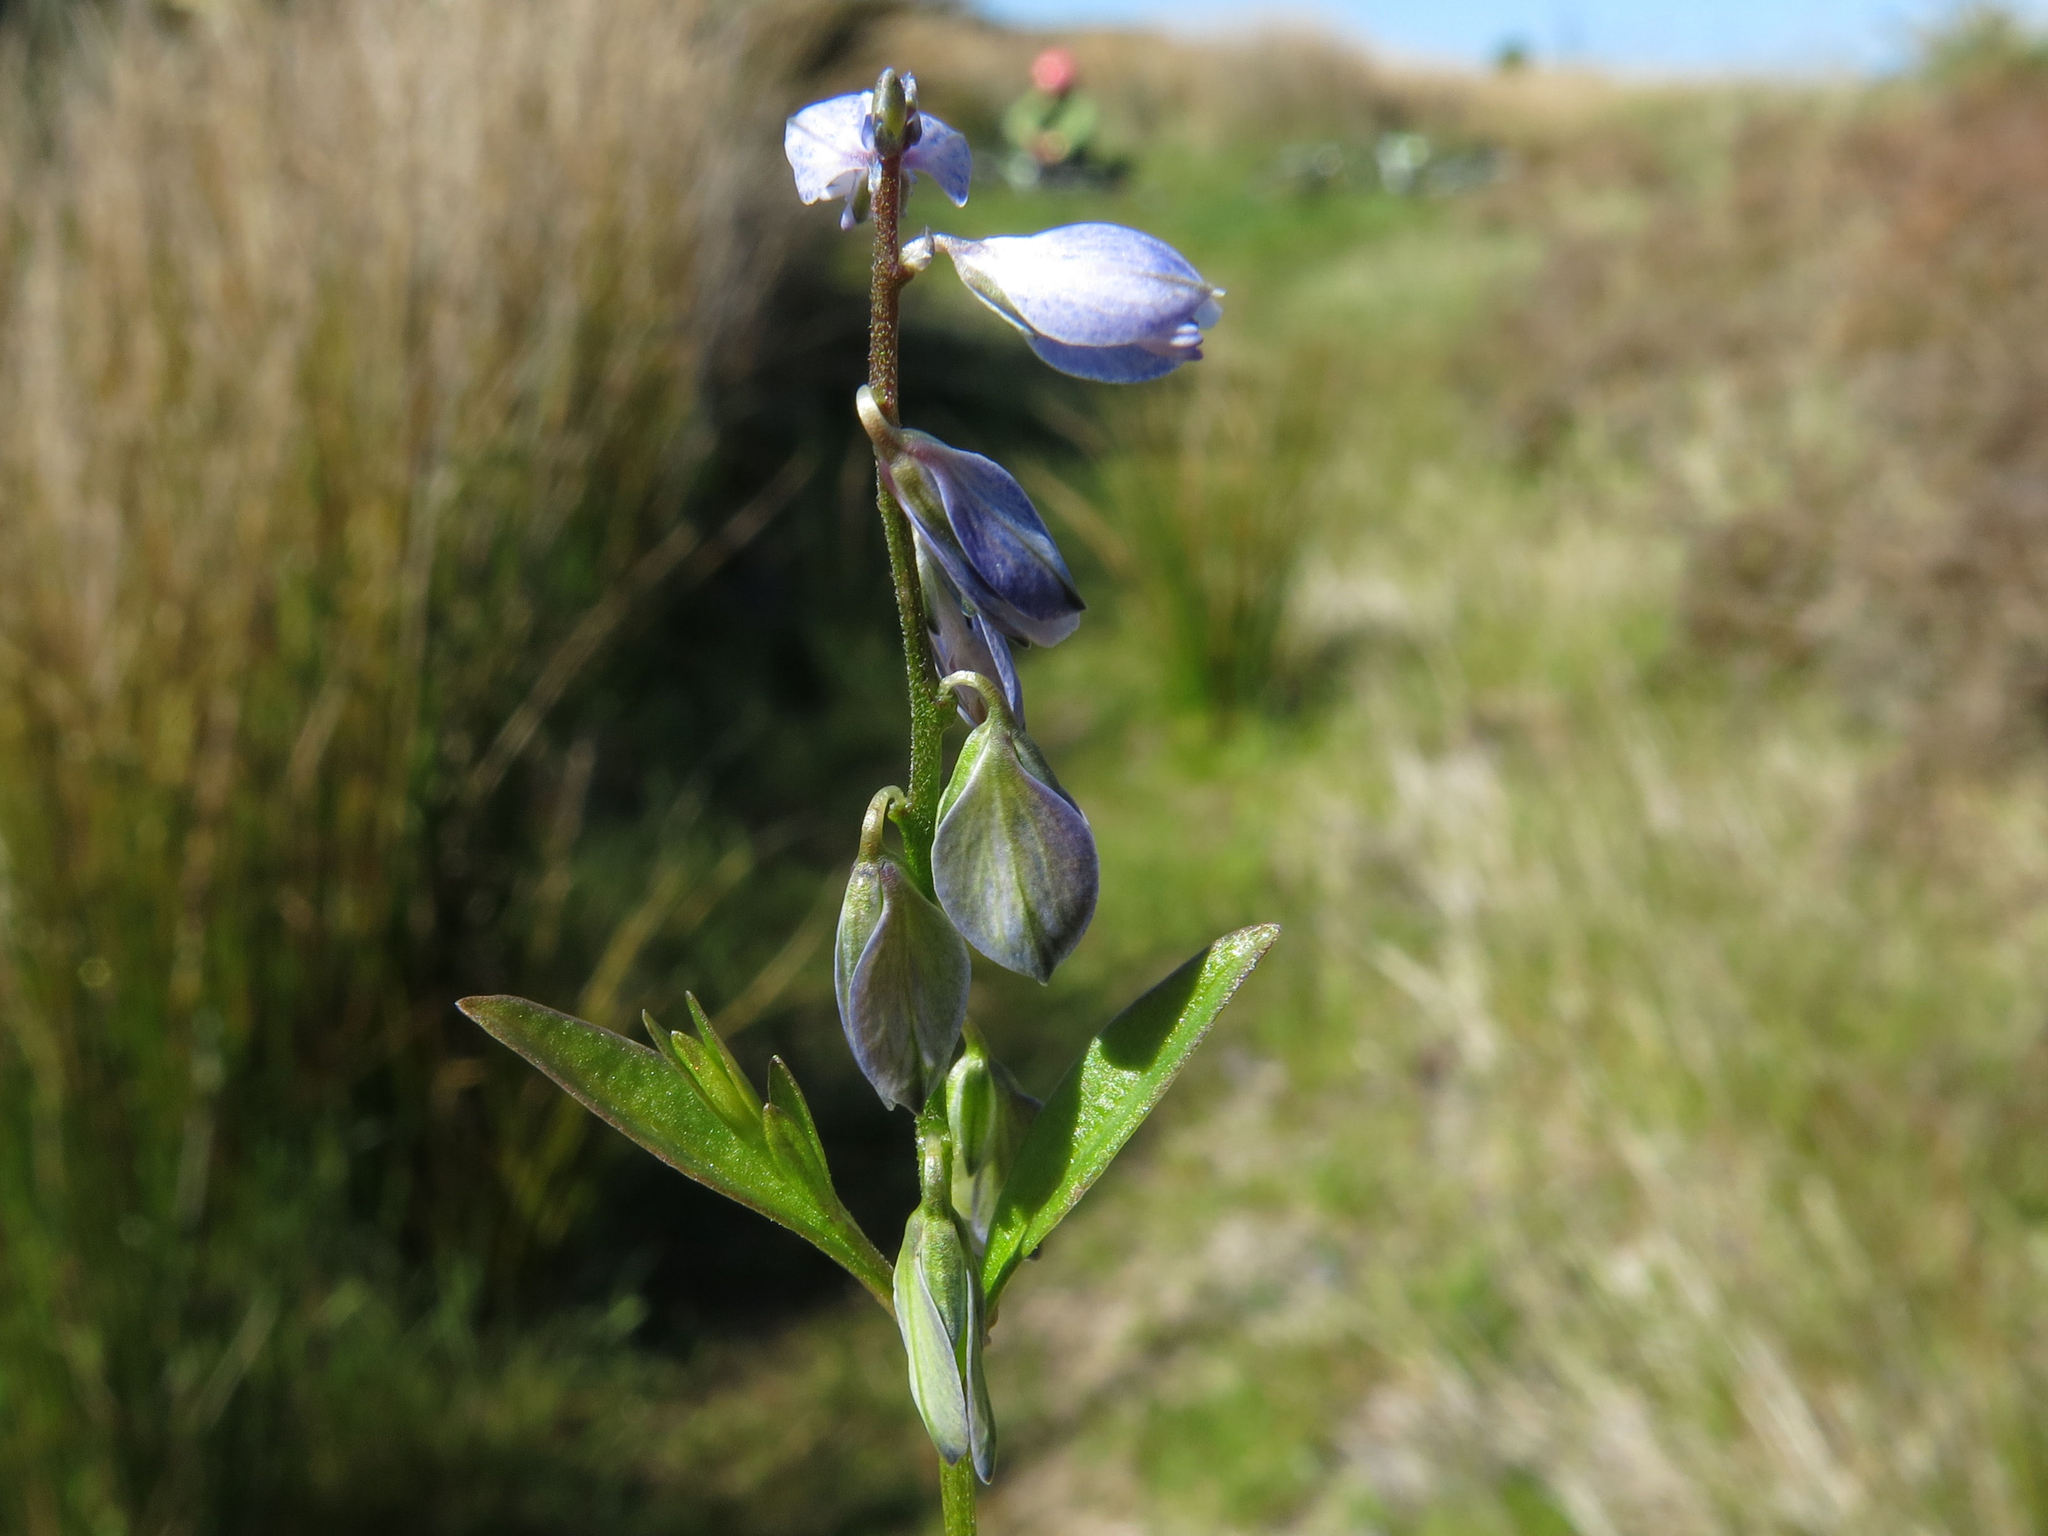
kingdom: Plantae
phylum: Tracheophyta
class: Magnoliopsida
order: Fabales
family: Polygalaceae
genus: Polygala
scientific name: Polygala serpyllifolia
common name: Heath milkwort
